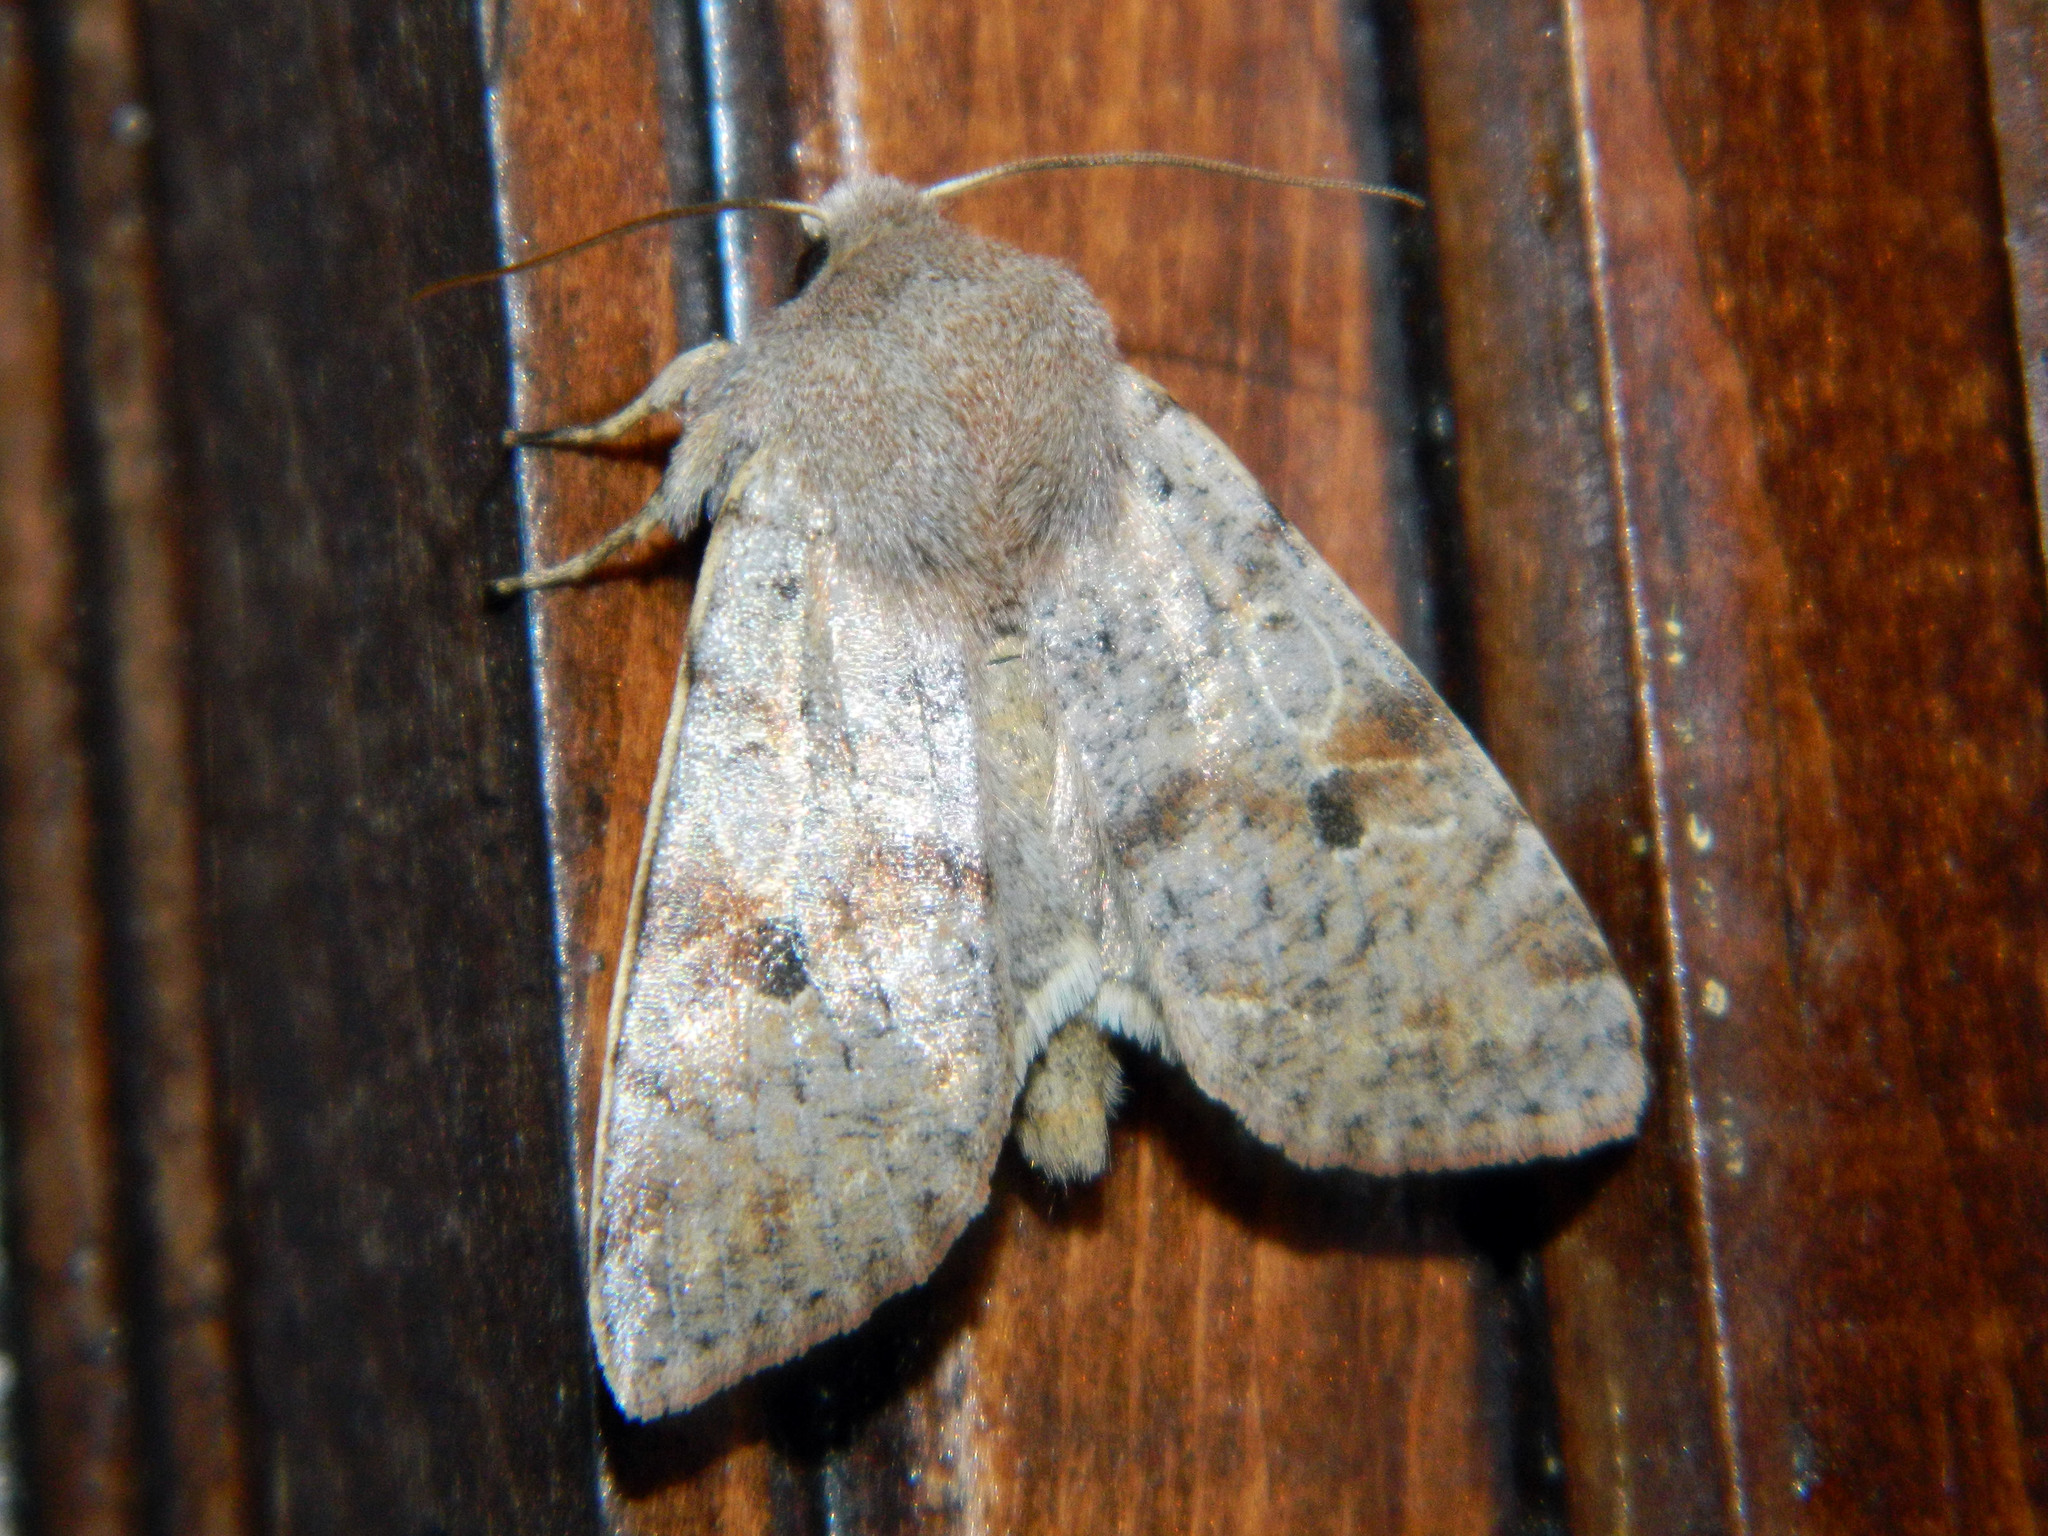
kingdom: Animalia
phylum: Arthropoda
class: Insecta
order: Lepidoptera
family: Noctuidae
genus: Orthosia
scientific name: Orthosia hibisci
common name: Green fruitworm
